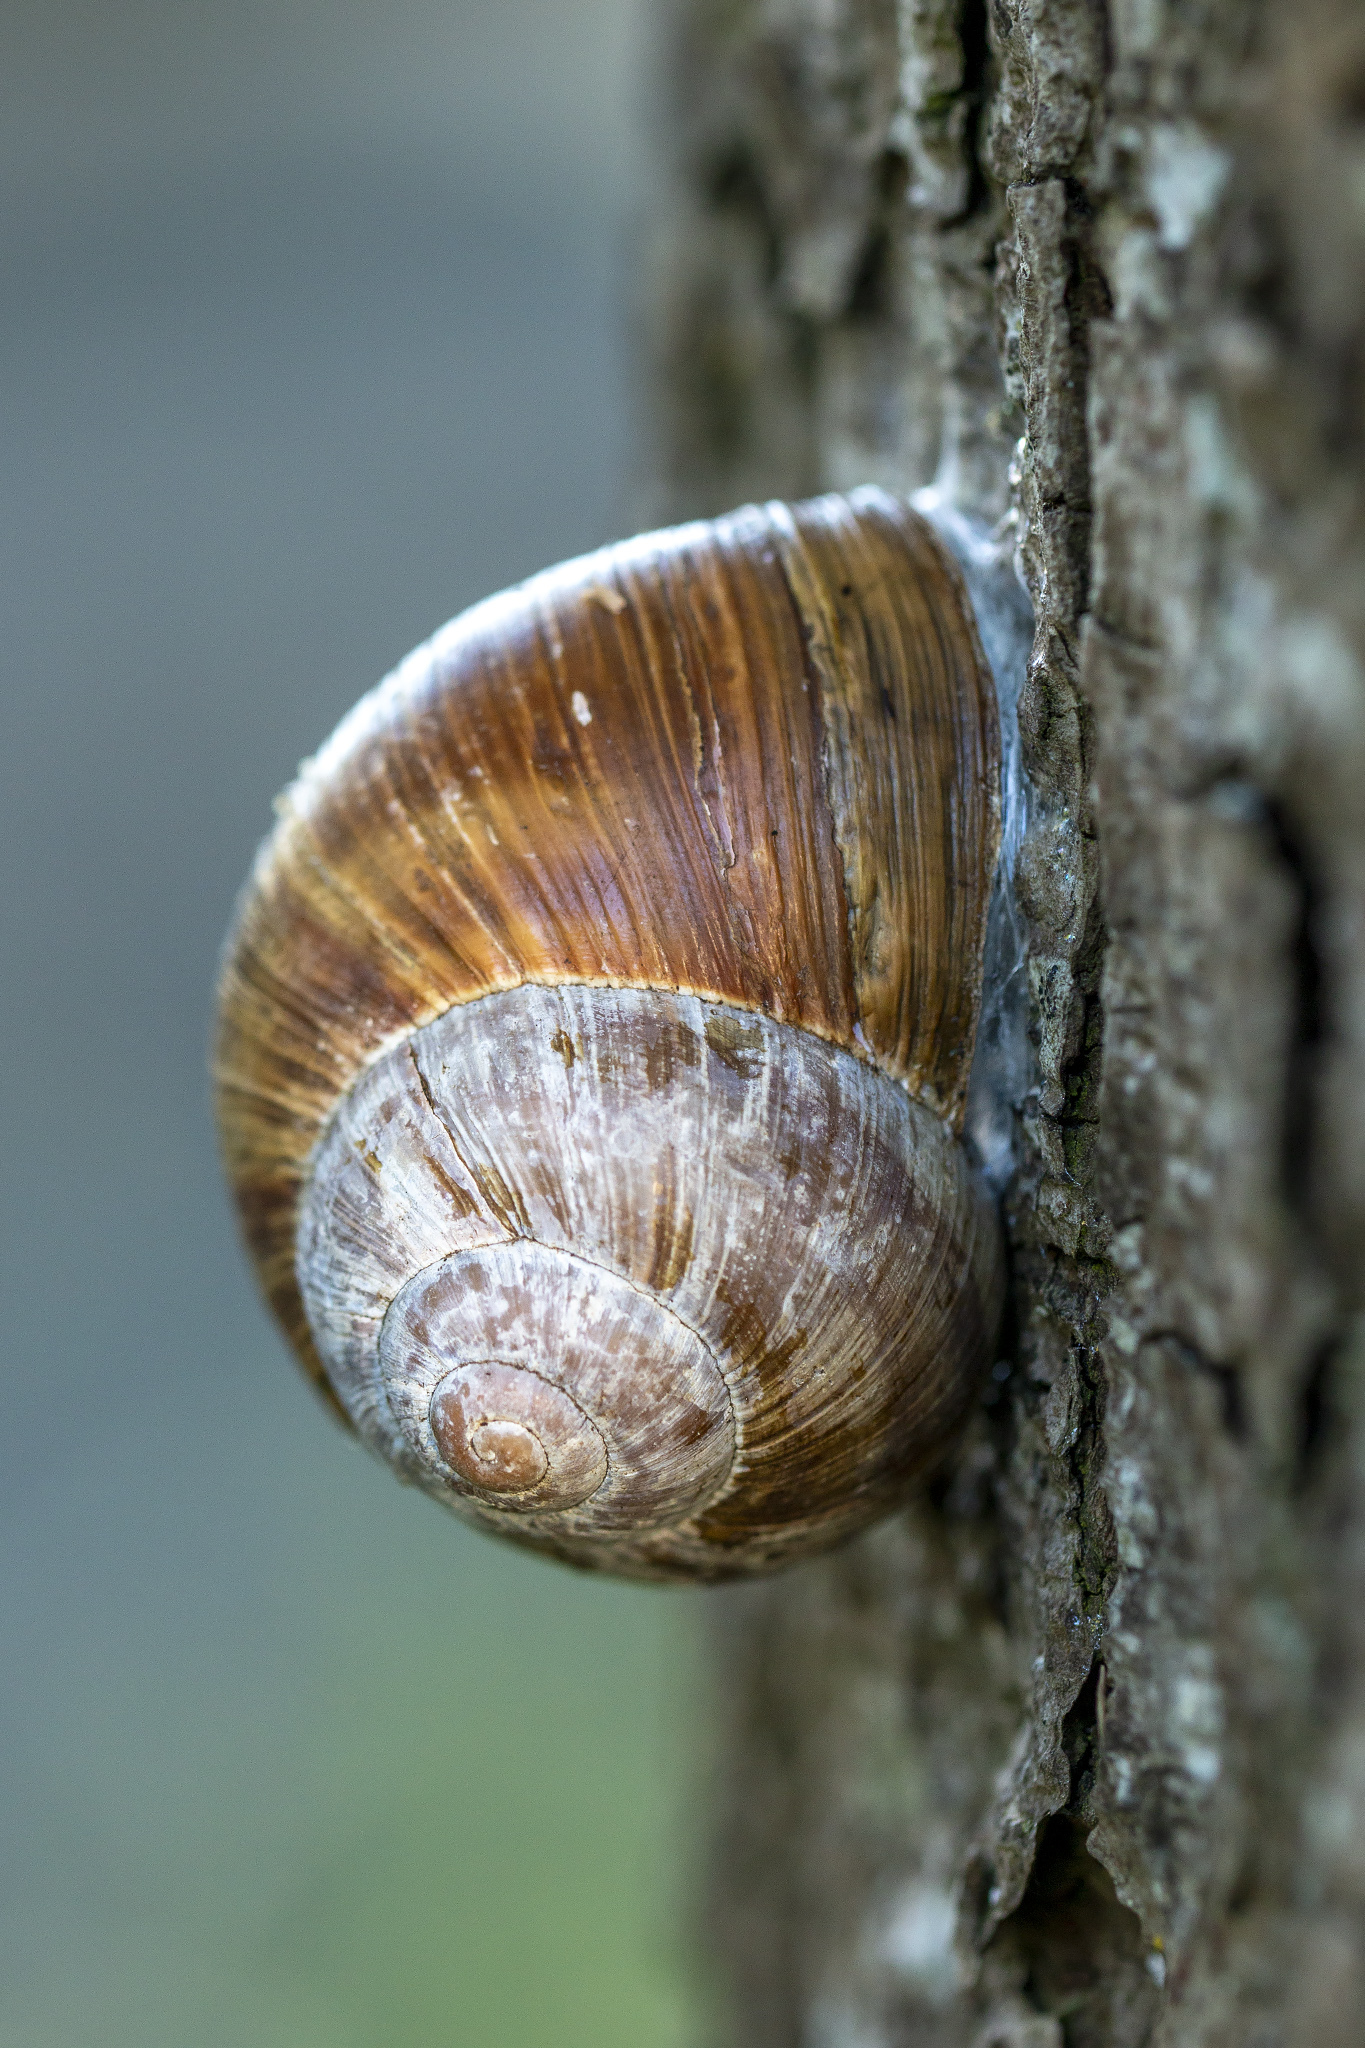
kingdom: Animalia
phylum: Mollusca
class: Gastropoda
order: Stylommatophora
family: Helicidae
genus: Helix
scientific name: Helix pomatia
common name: Roman snail
